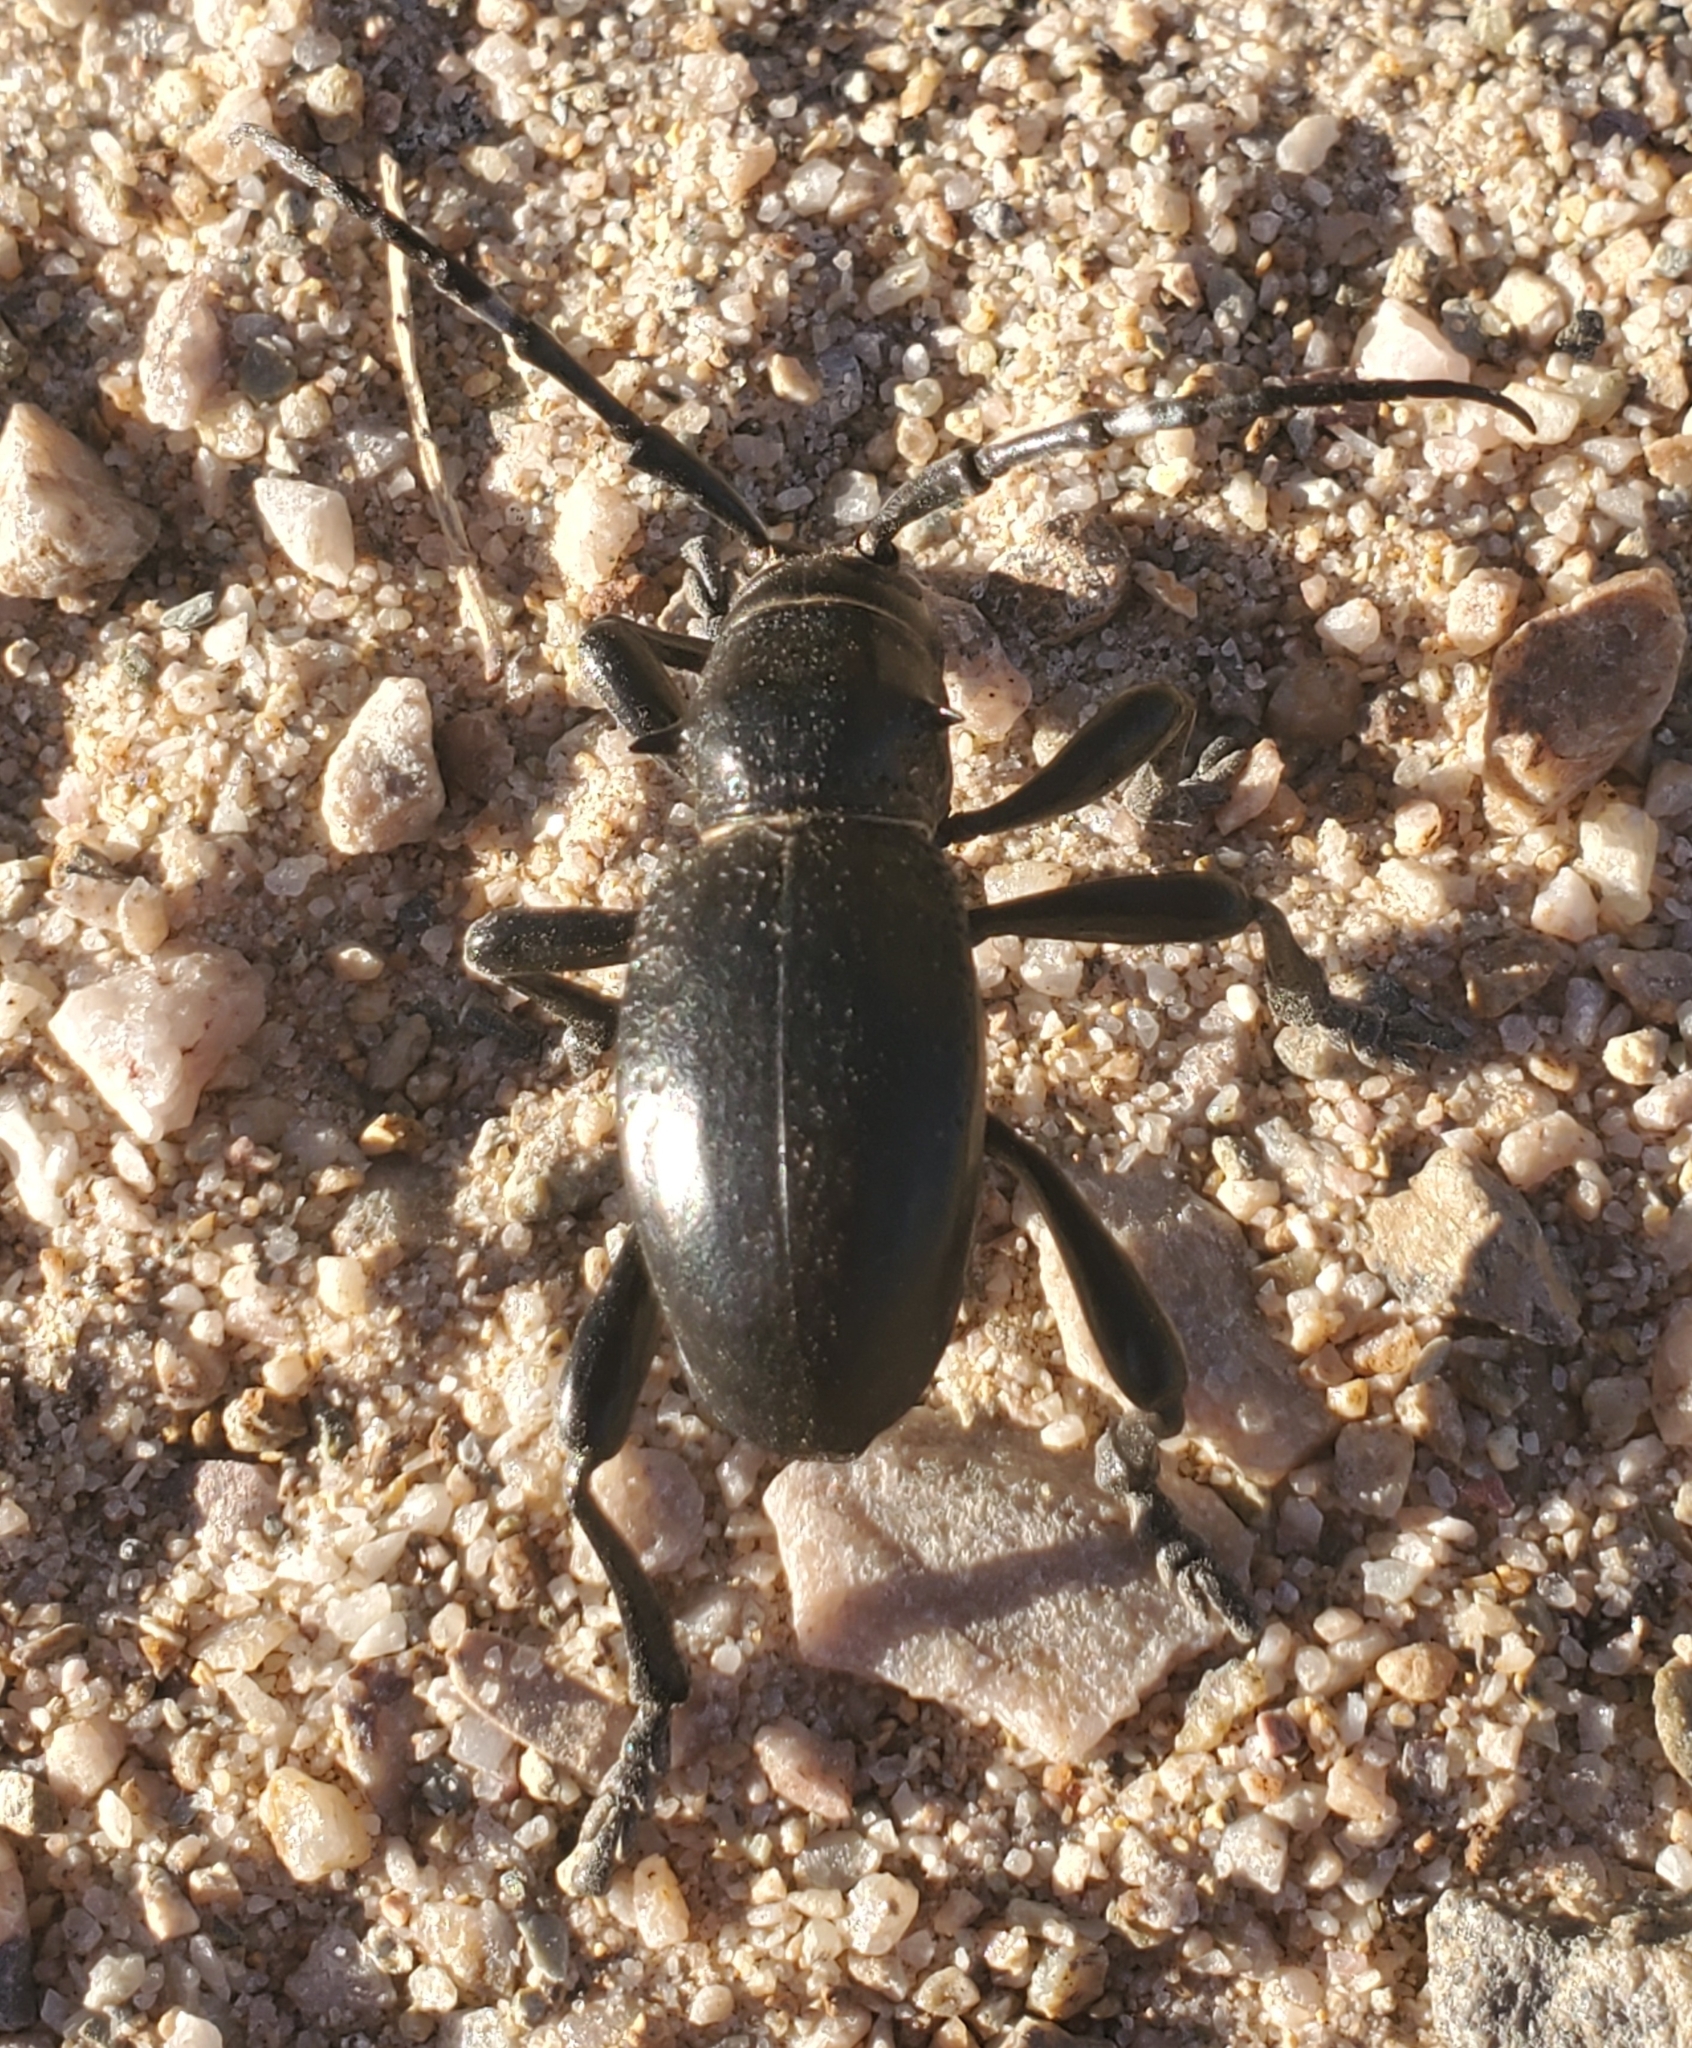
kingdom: Animalia
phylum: Arthropoda
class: Insecta
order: Coleoptera
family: Cerambycidae
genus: Moneilema
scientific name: Moneilema gigas
